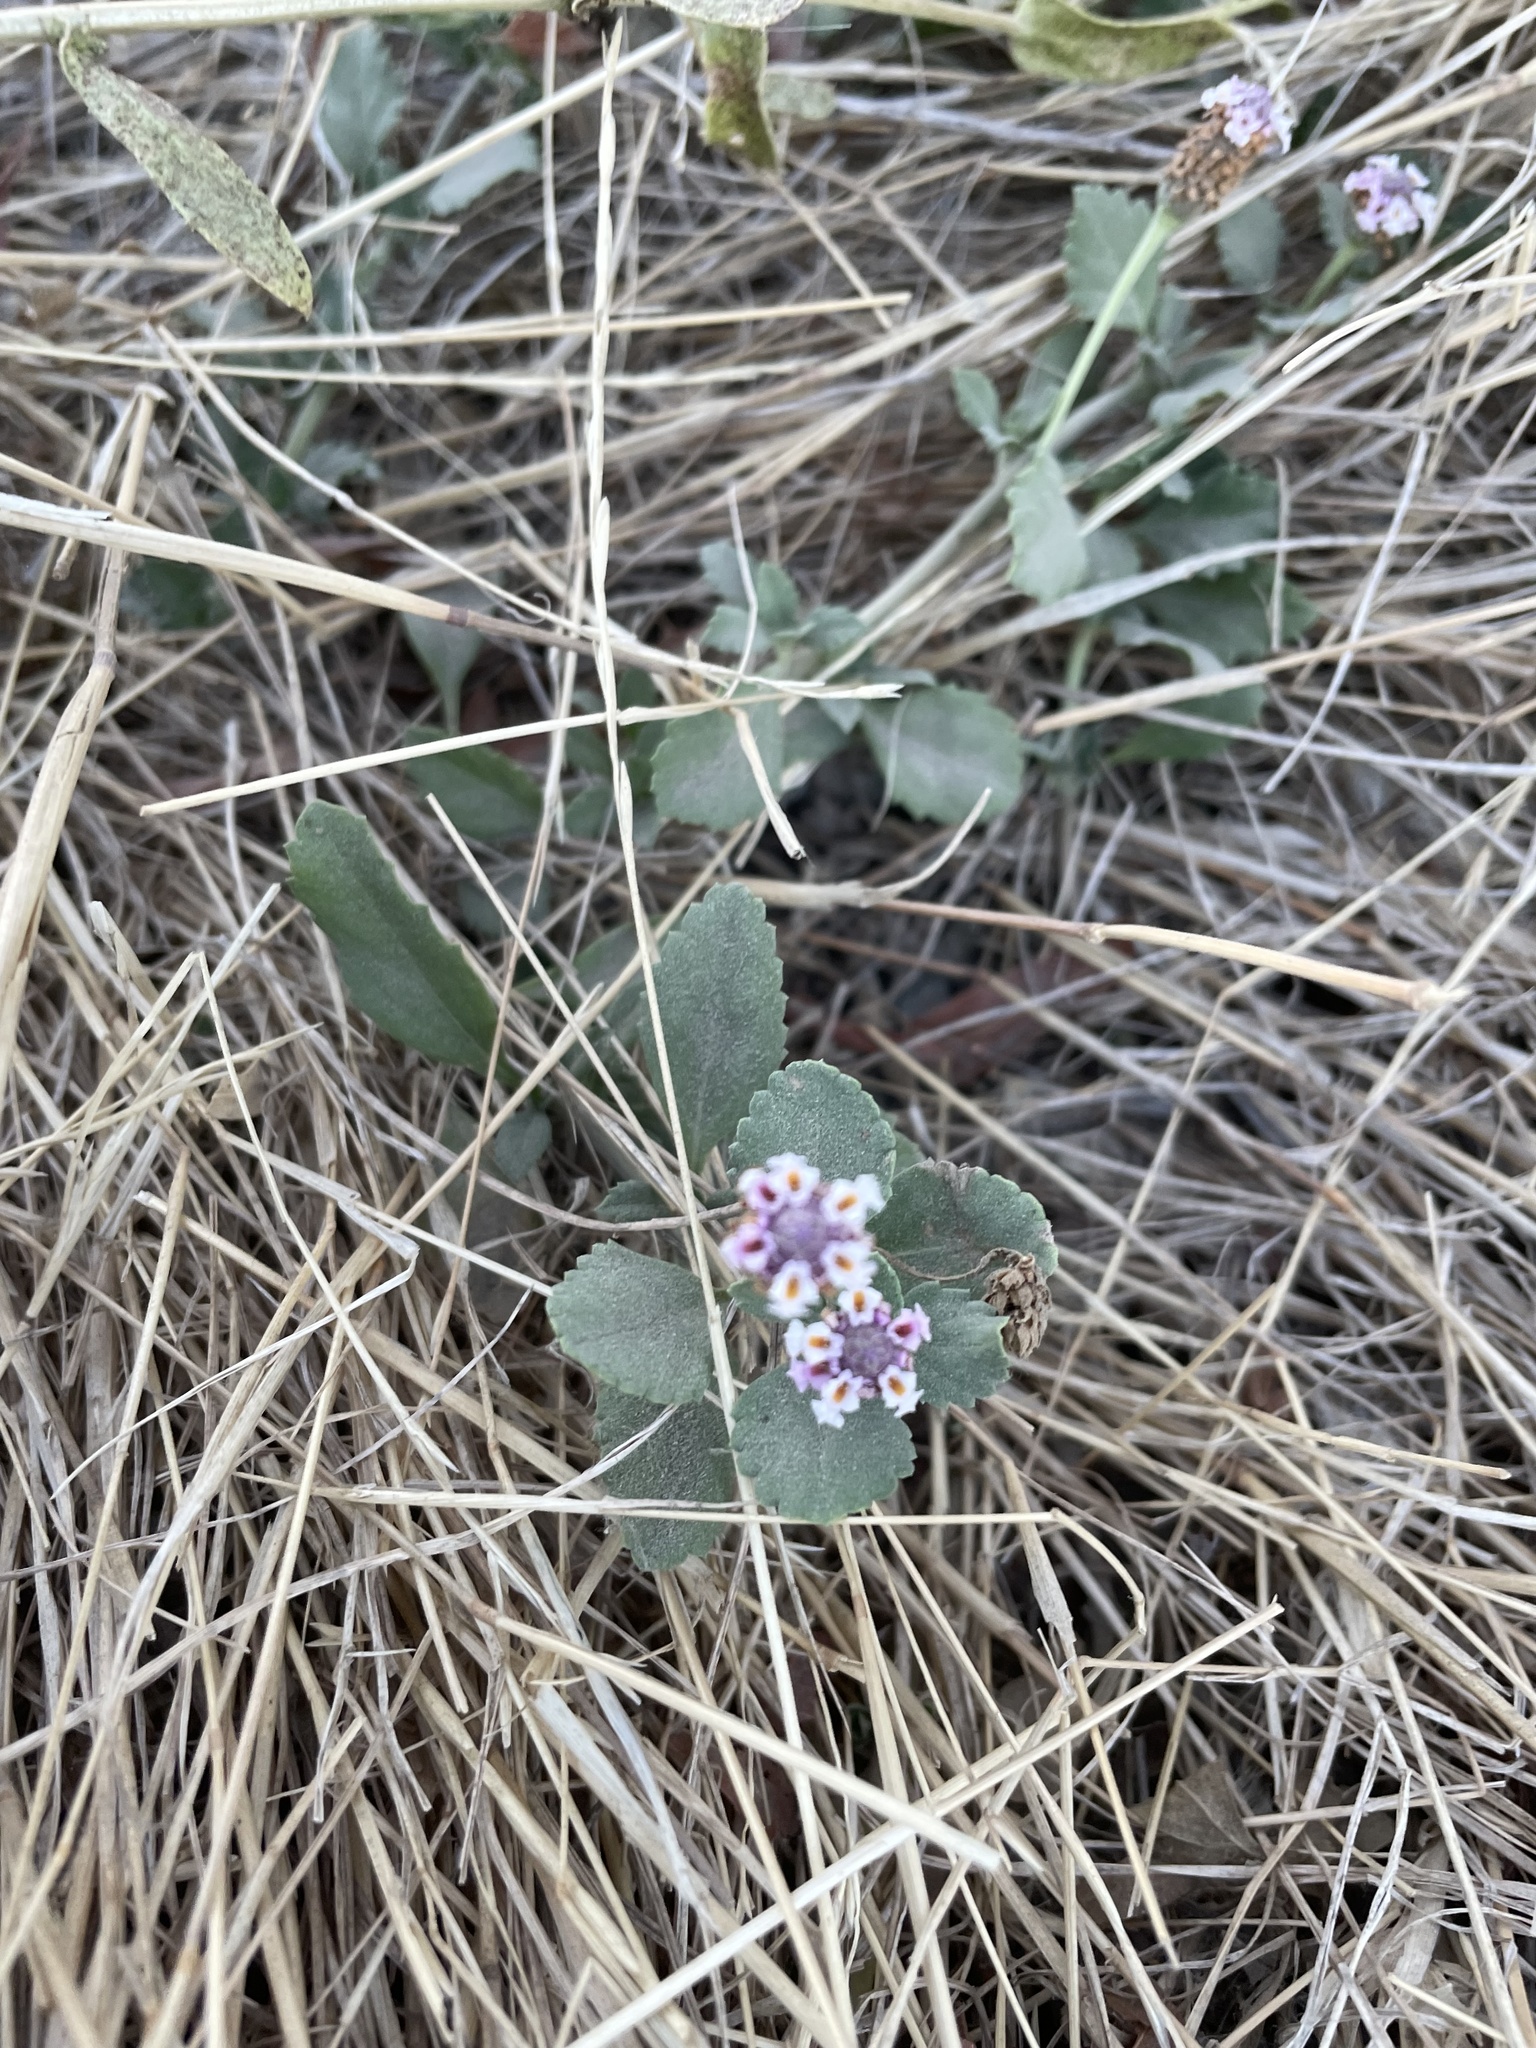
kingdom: Plantae
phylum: Tracheophyta
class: Magnoliopsida
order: Lamiales
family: Verbenaceae
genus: Phyla
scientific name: Phyla nodiflora
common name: Frogfruit
